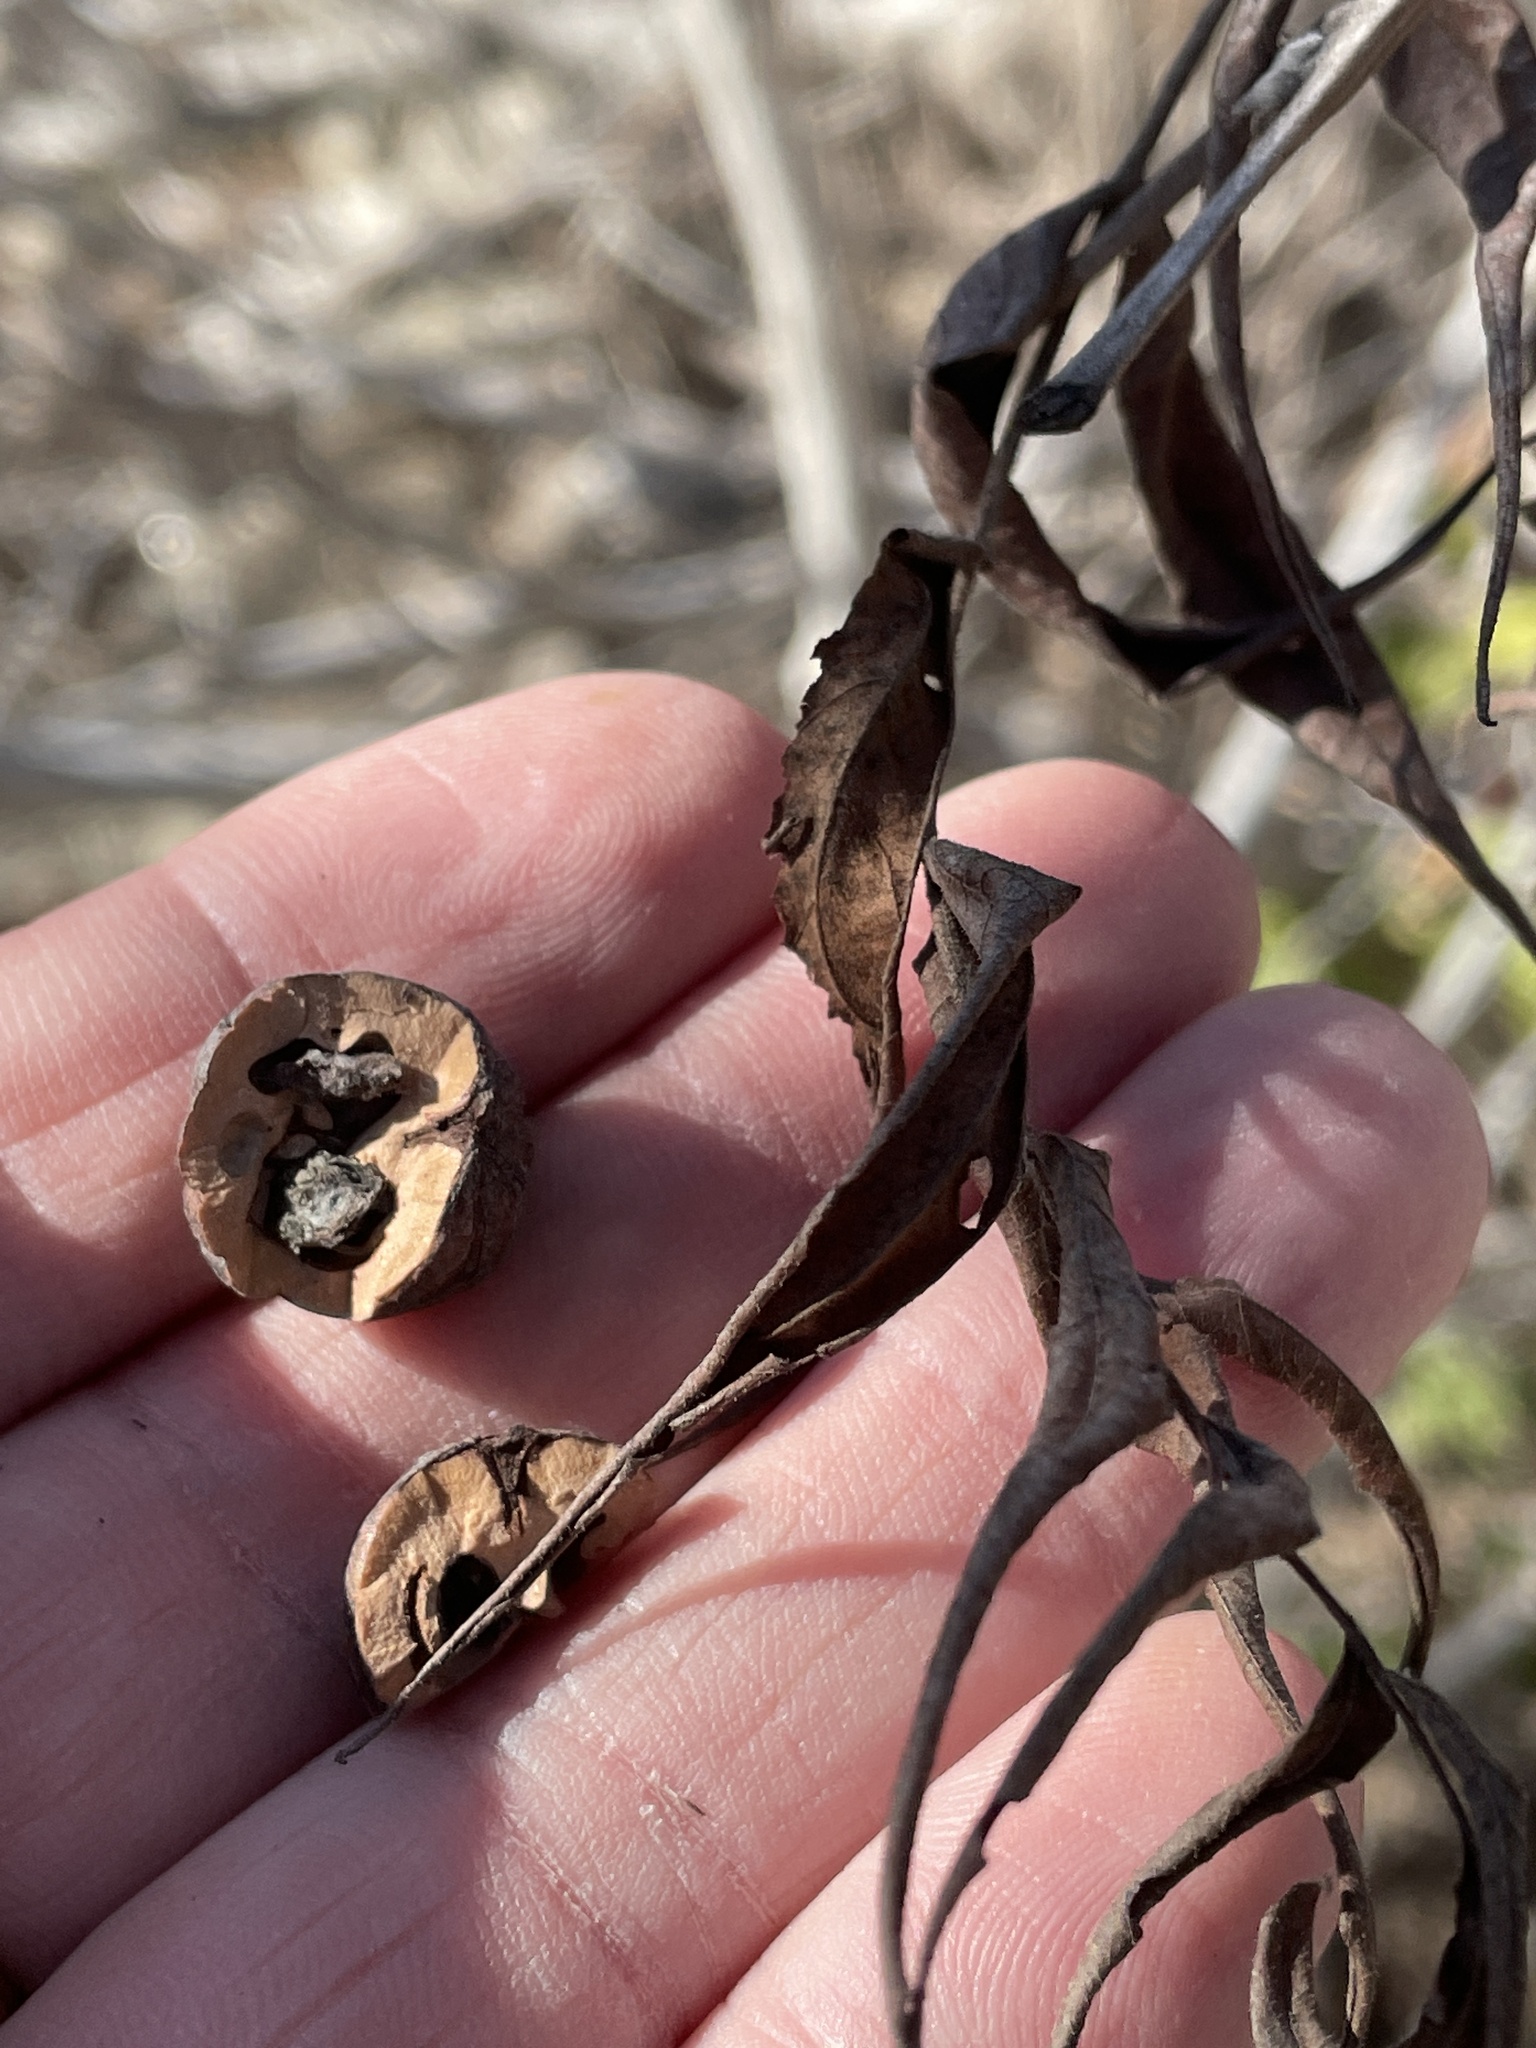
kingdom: Plantae
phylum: Tracheophyta
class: Magnoliopsida
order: Fagales
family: Juglandaceae
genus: Juglans
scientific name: Juglans microcarpa
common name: Texas walnut
